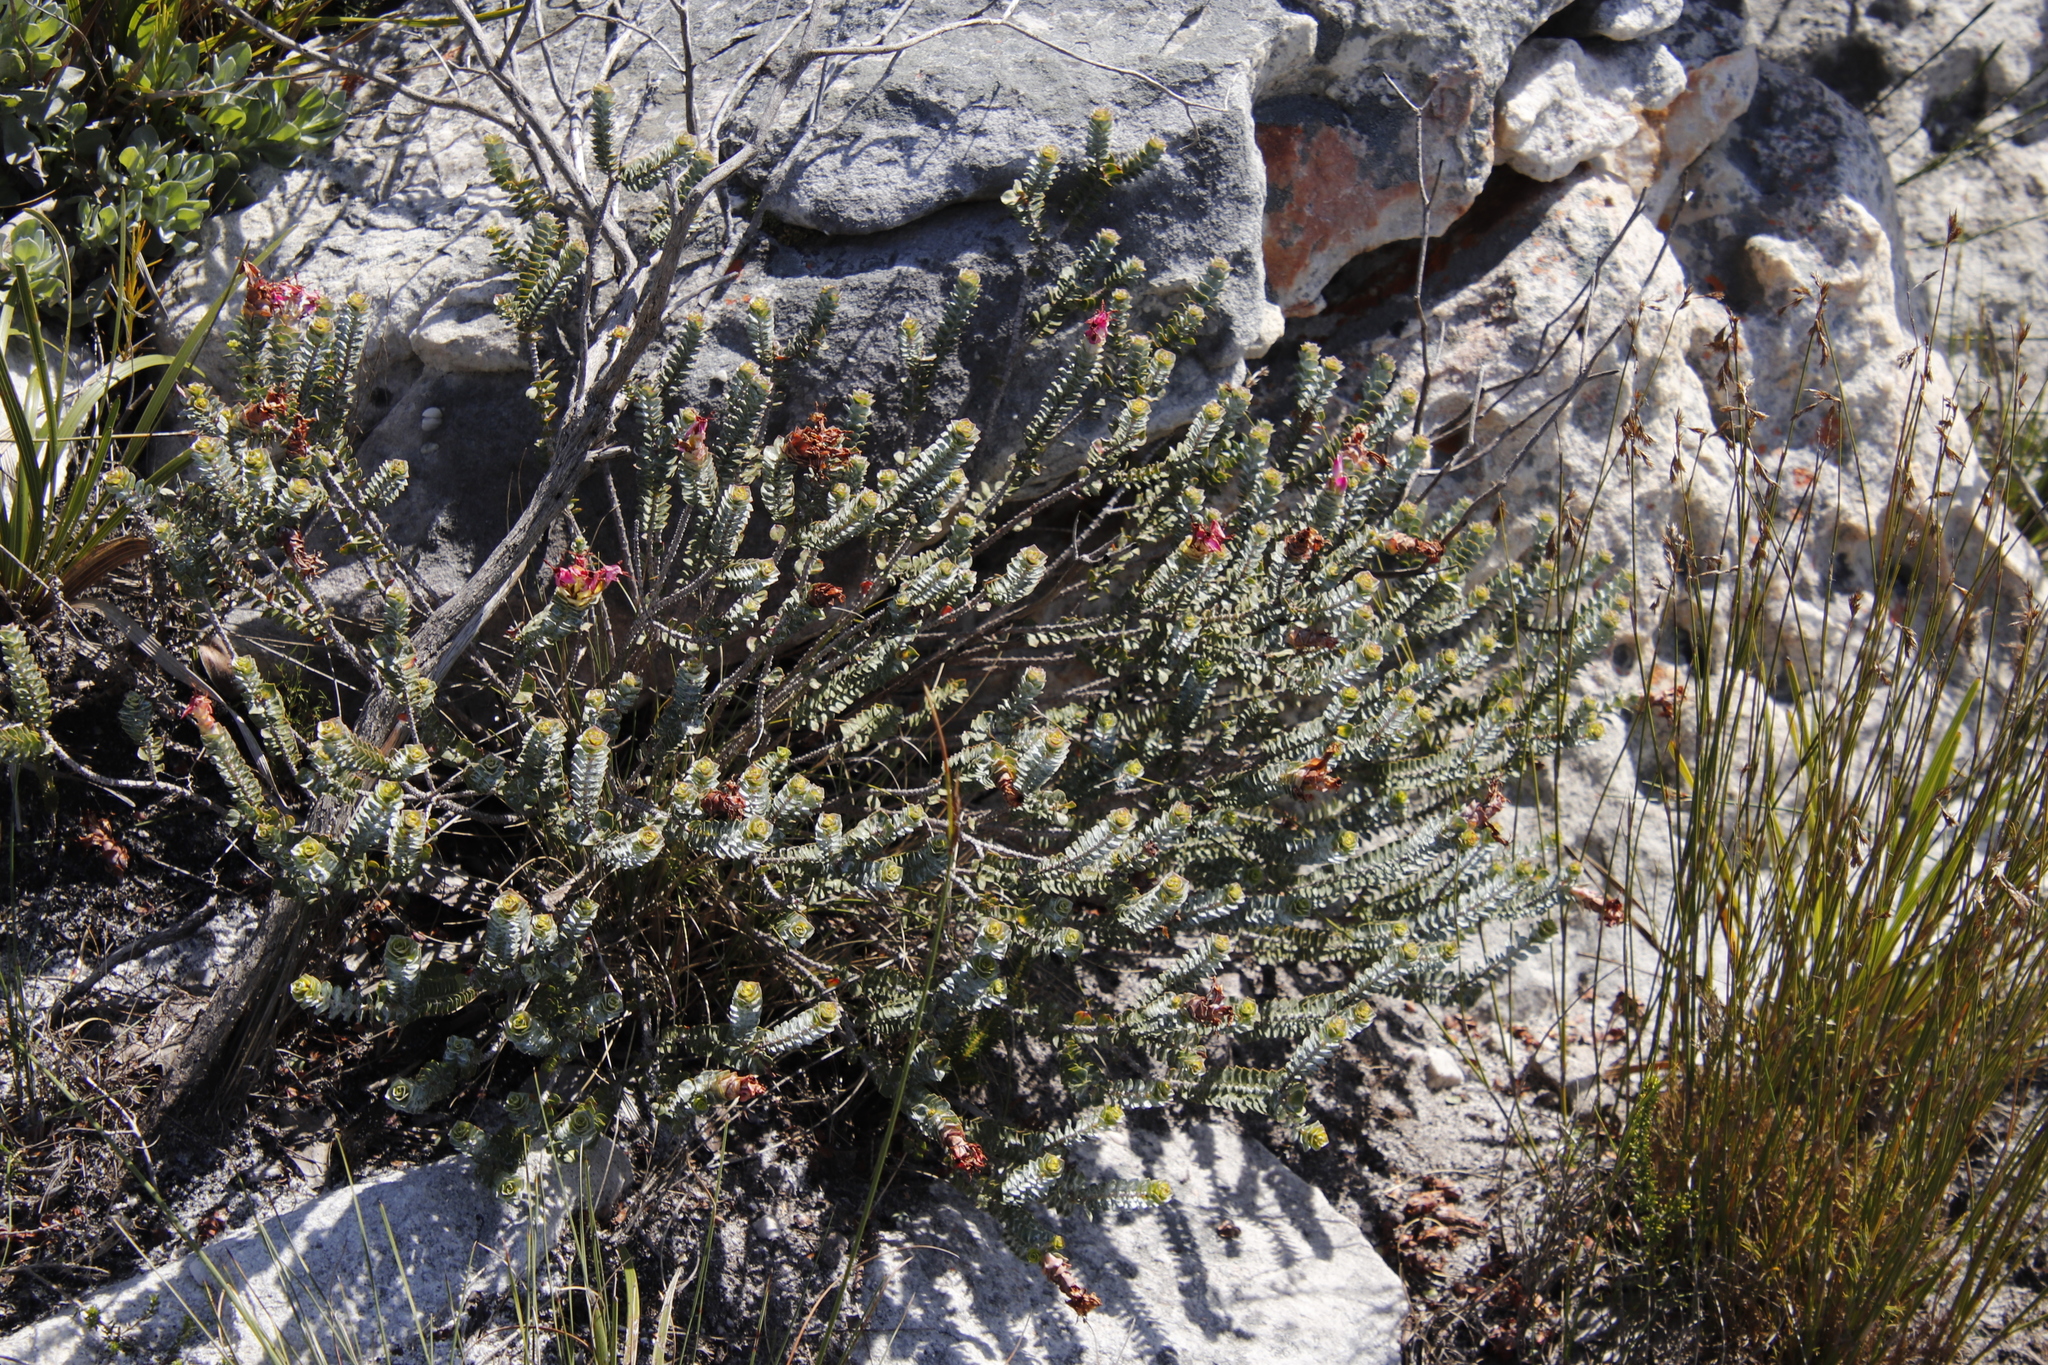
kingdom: Plantae
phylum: Tracheophyta
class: Magnoliopsida
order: Myrtales
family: Penaeaceae
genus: Saltera
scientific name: Saltera sarcocolla
